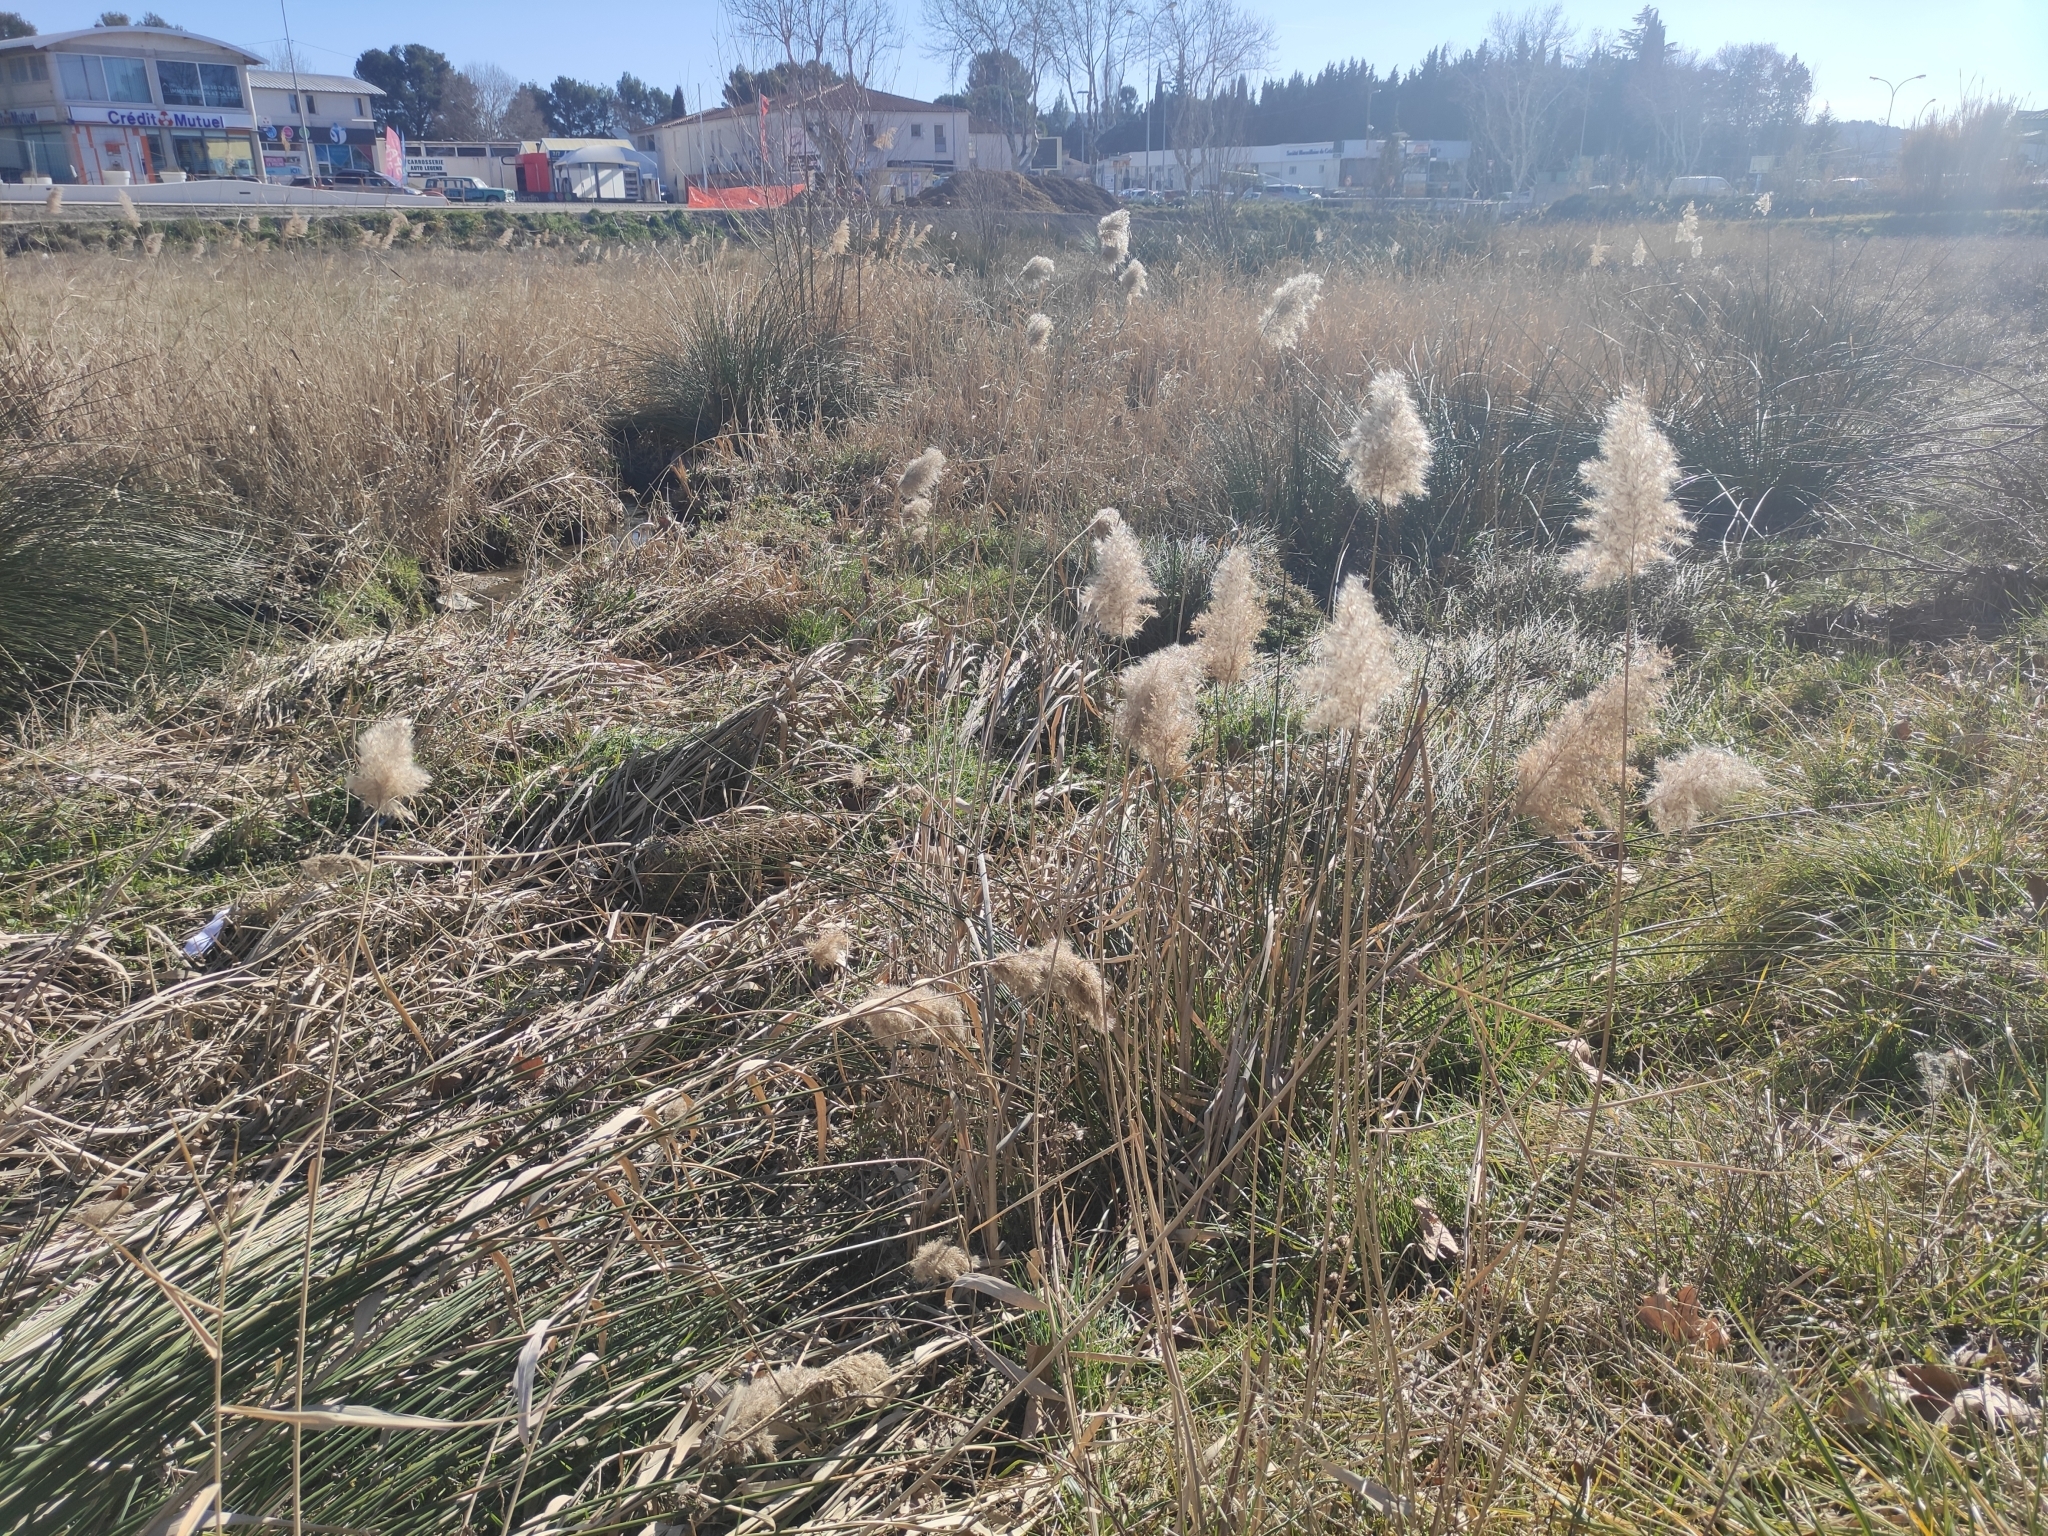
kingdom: Plantae
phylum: Tracheophyta
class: Liliopsida
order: Poales
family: Poaceae
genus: Phragmites
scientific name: Phragmites australis
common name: Common reed
